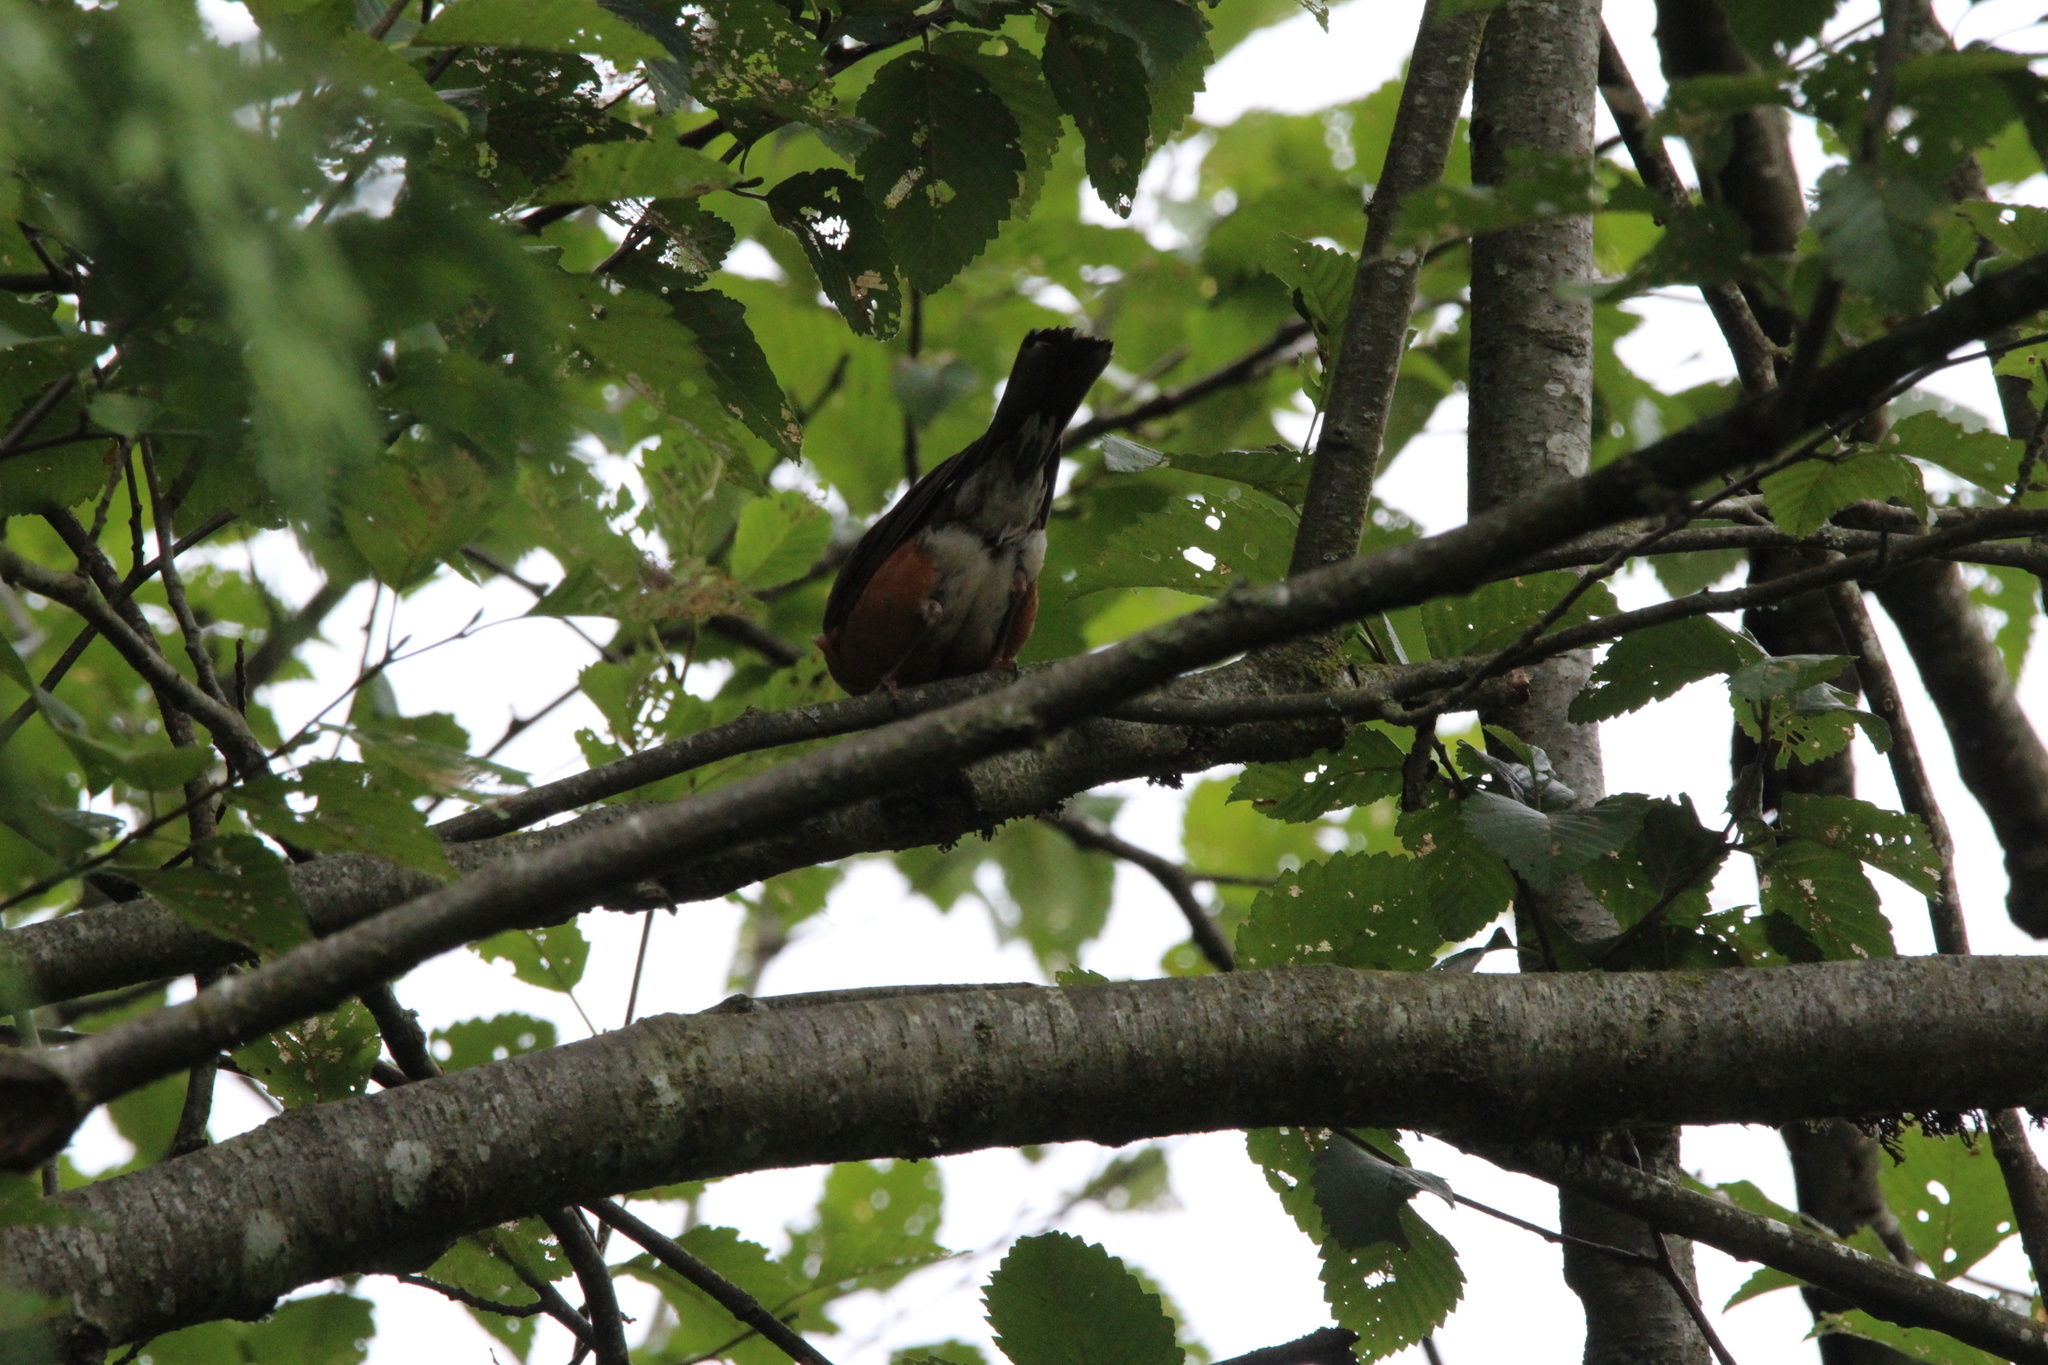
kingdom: Animalia
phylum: Chordata
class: Aves
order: Passeriformes
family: Turdidae
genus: Turdus
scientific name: Turdus migratorius
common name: American robin
